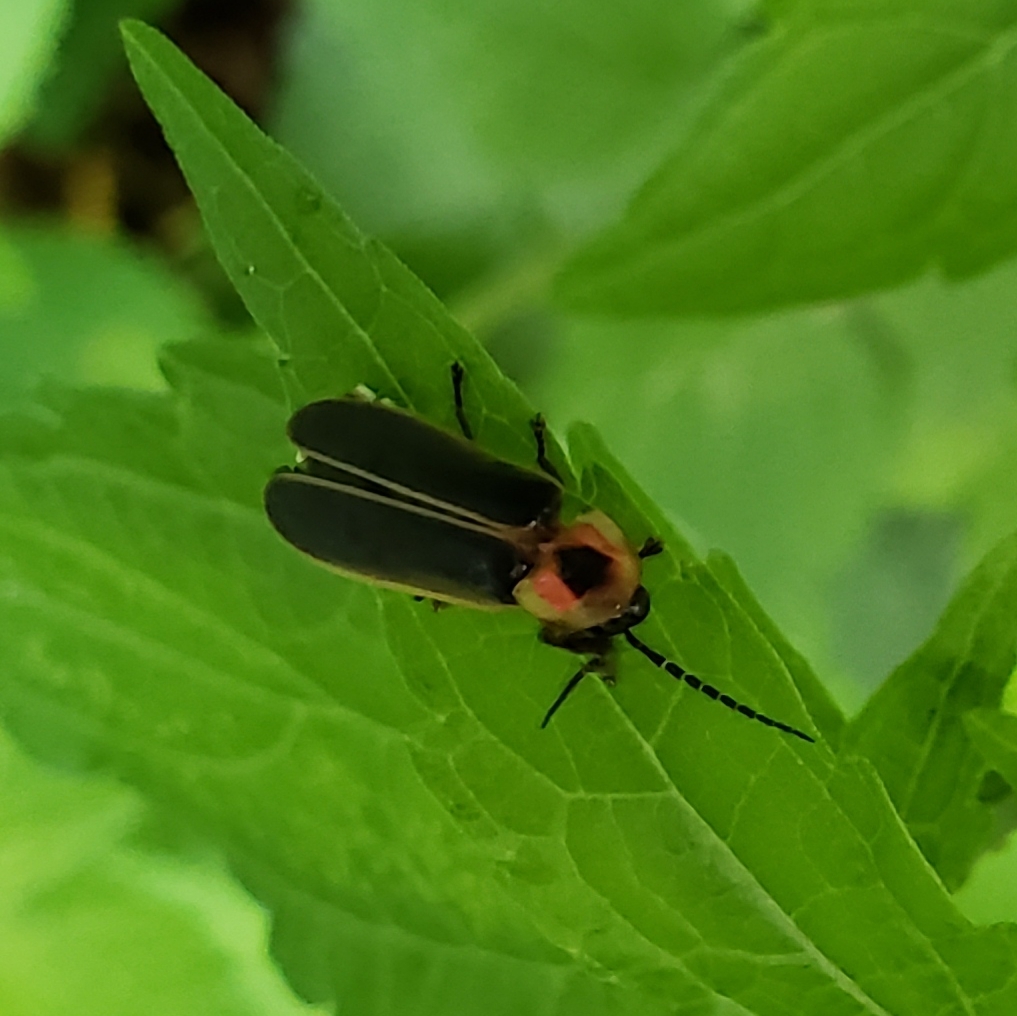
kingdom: Animalia
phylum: Arthropoda
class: Insecta
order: Coleoptera
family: Lampyridae
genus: Photinus
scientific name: Photinus pyralis
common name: Big dipper firefly
